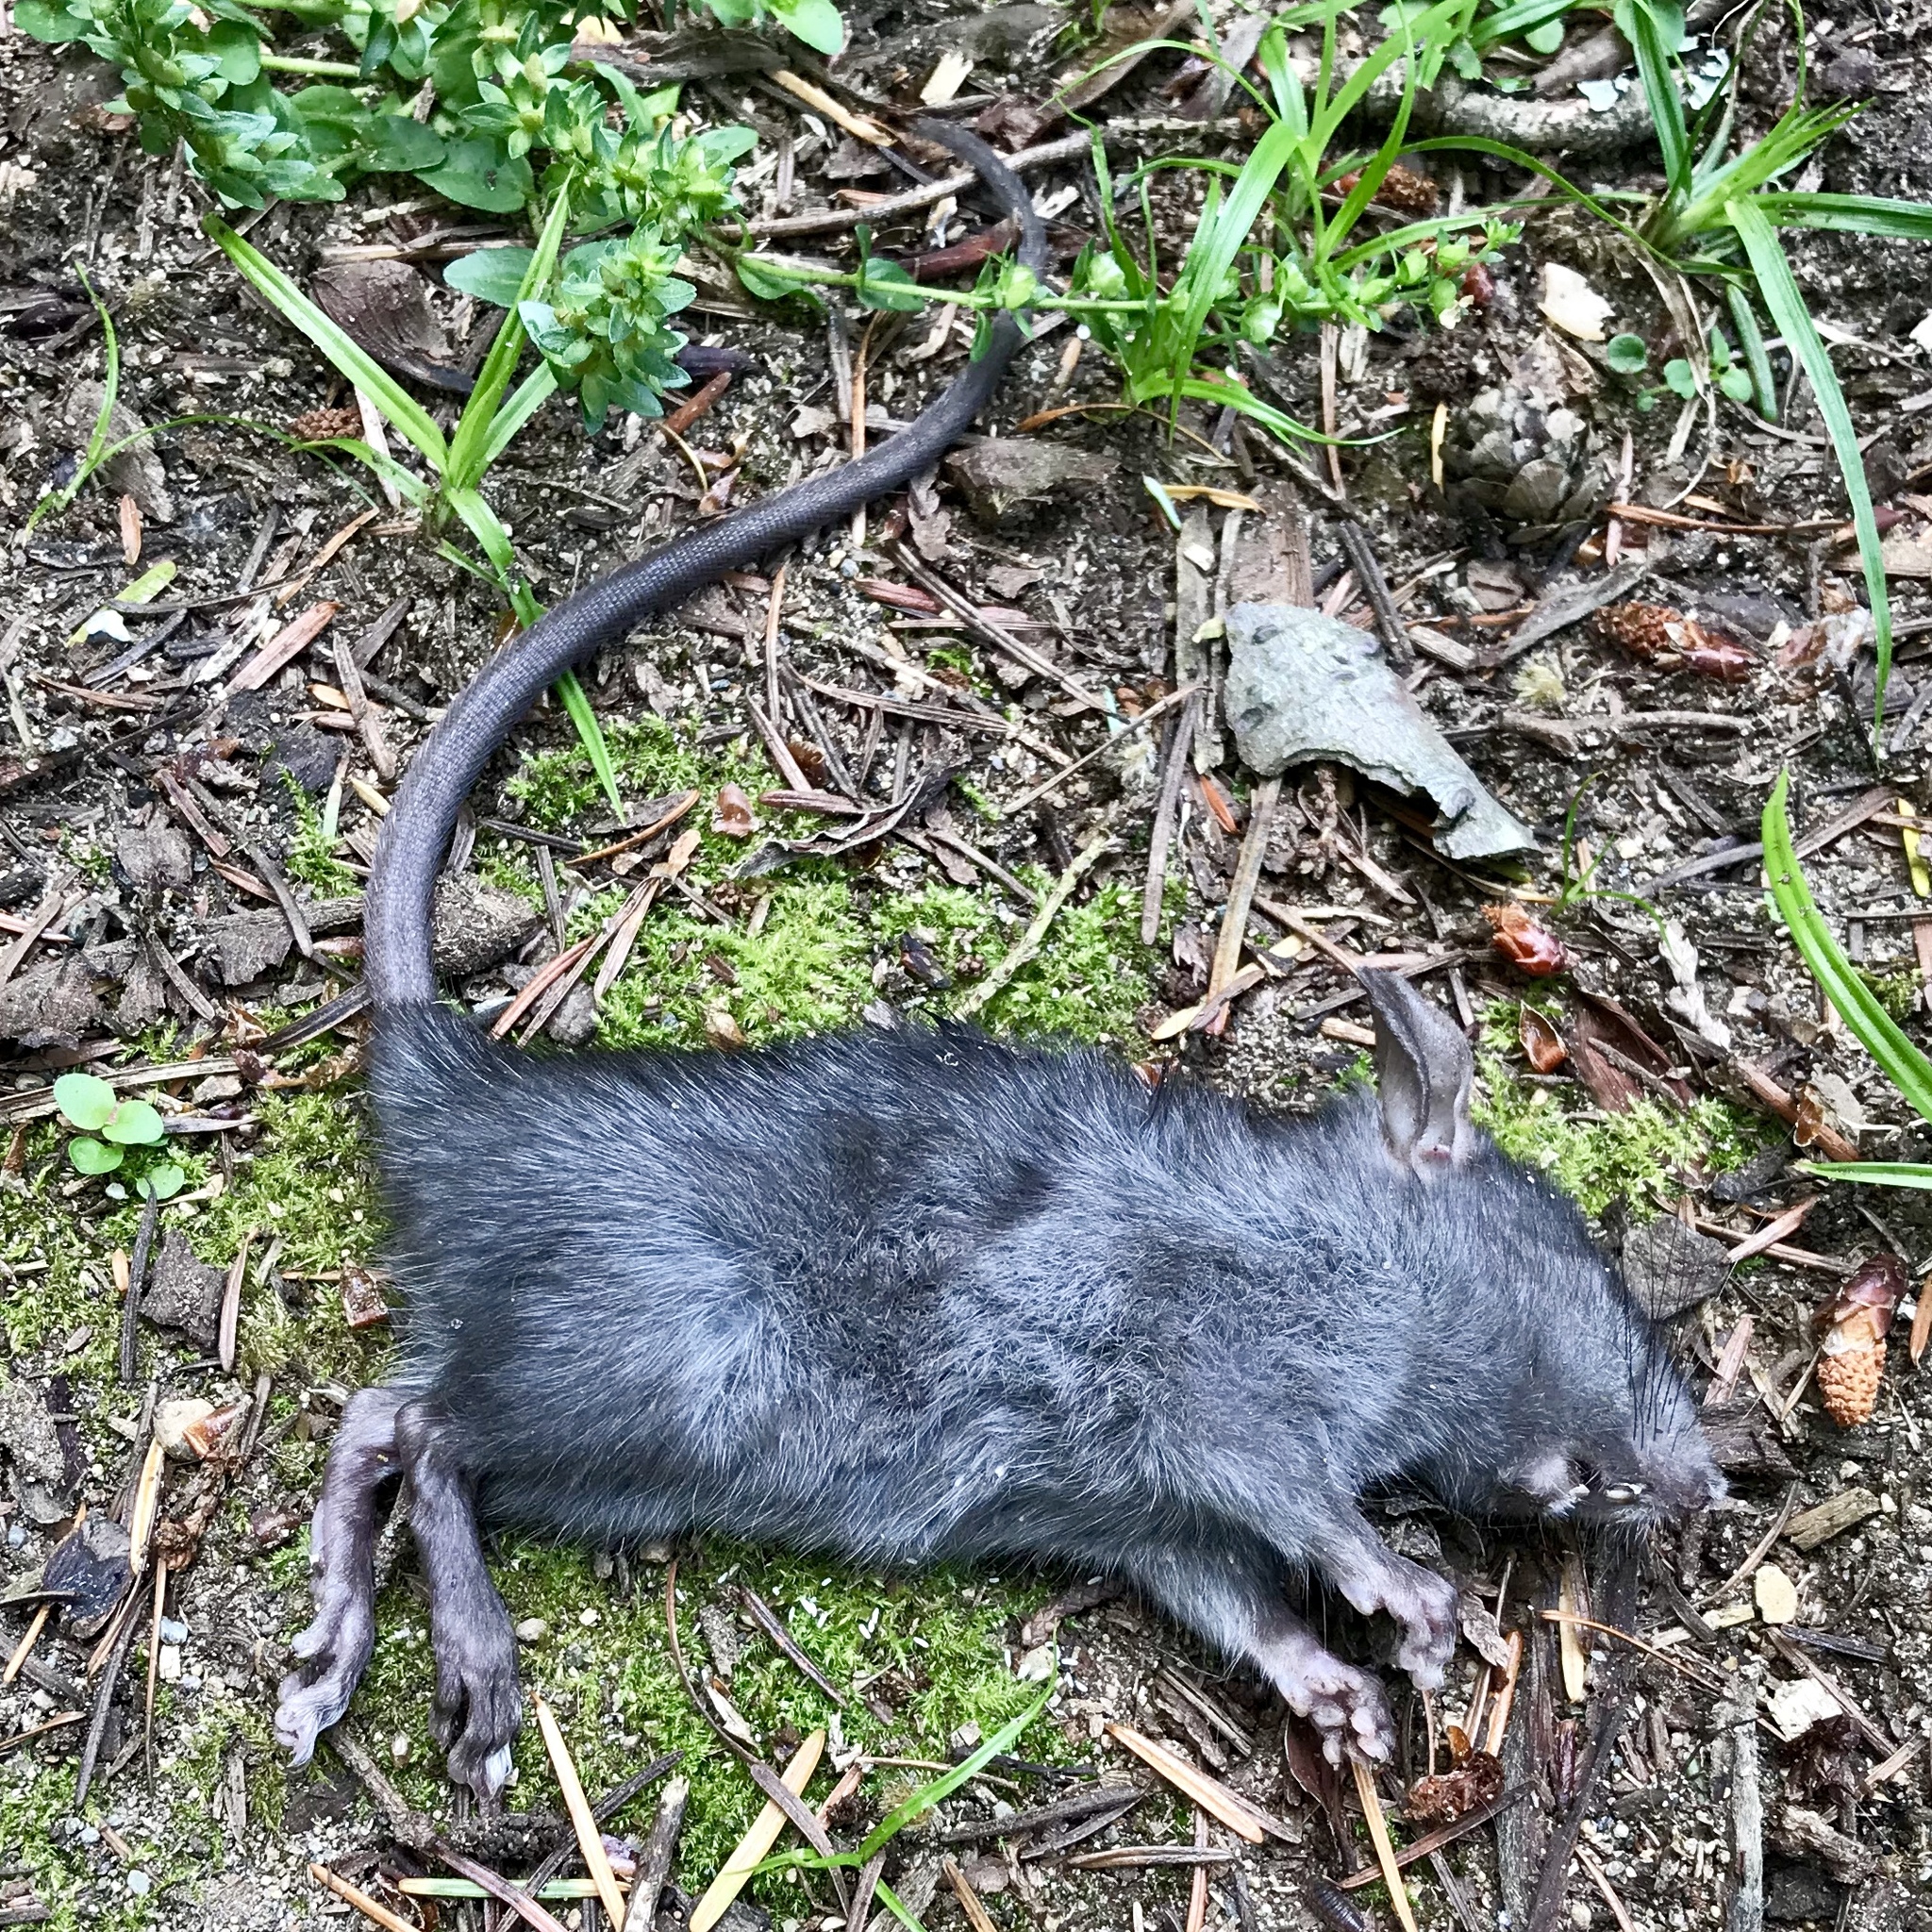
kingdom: Animalia
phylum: Chordata
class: Mammalia
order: Rodentia
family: Muridae
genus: Rattus
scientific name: Rattus rattus
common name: Black rat
